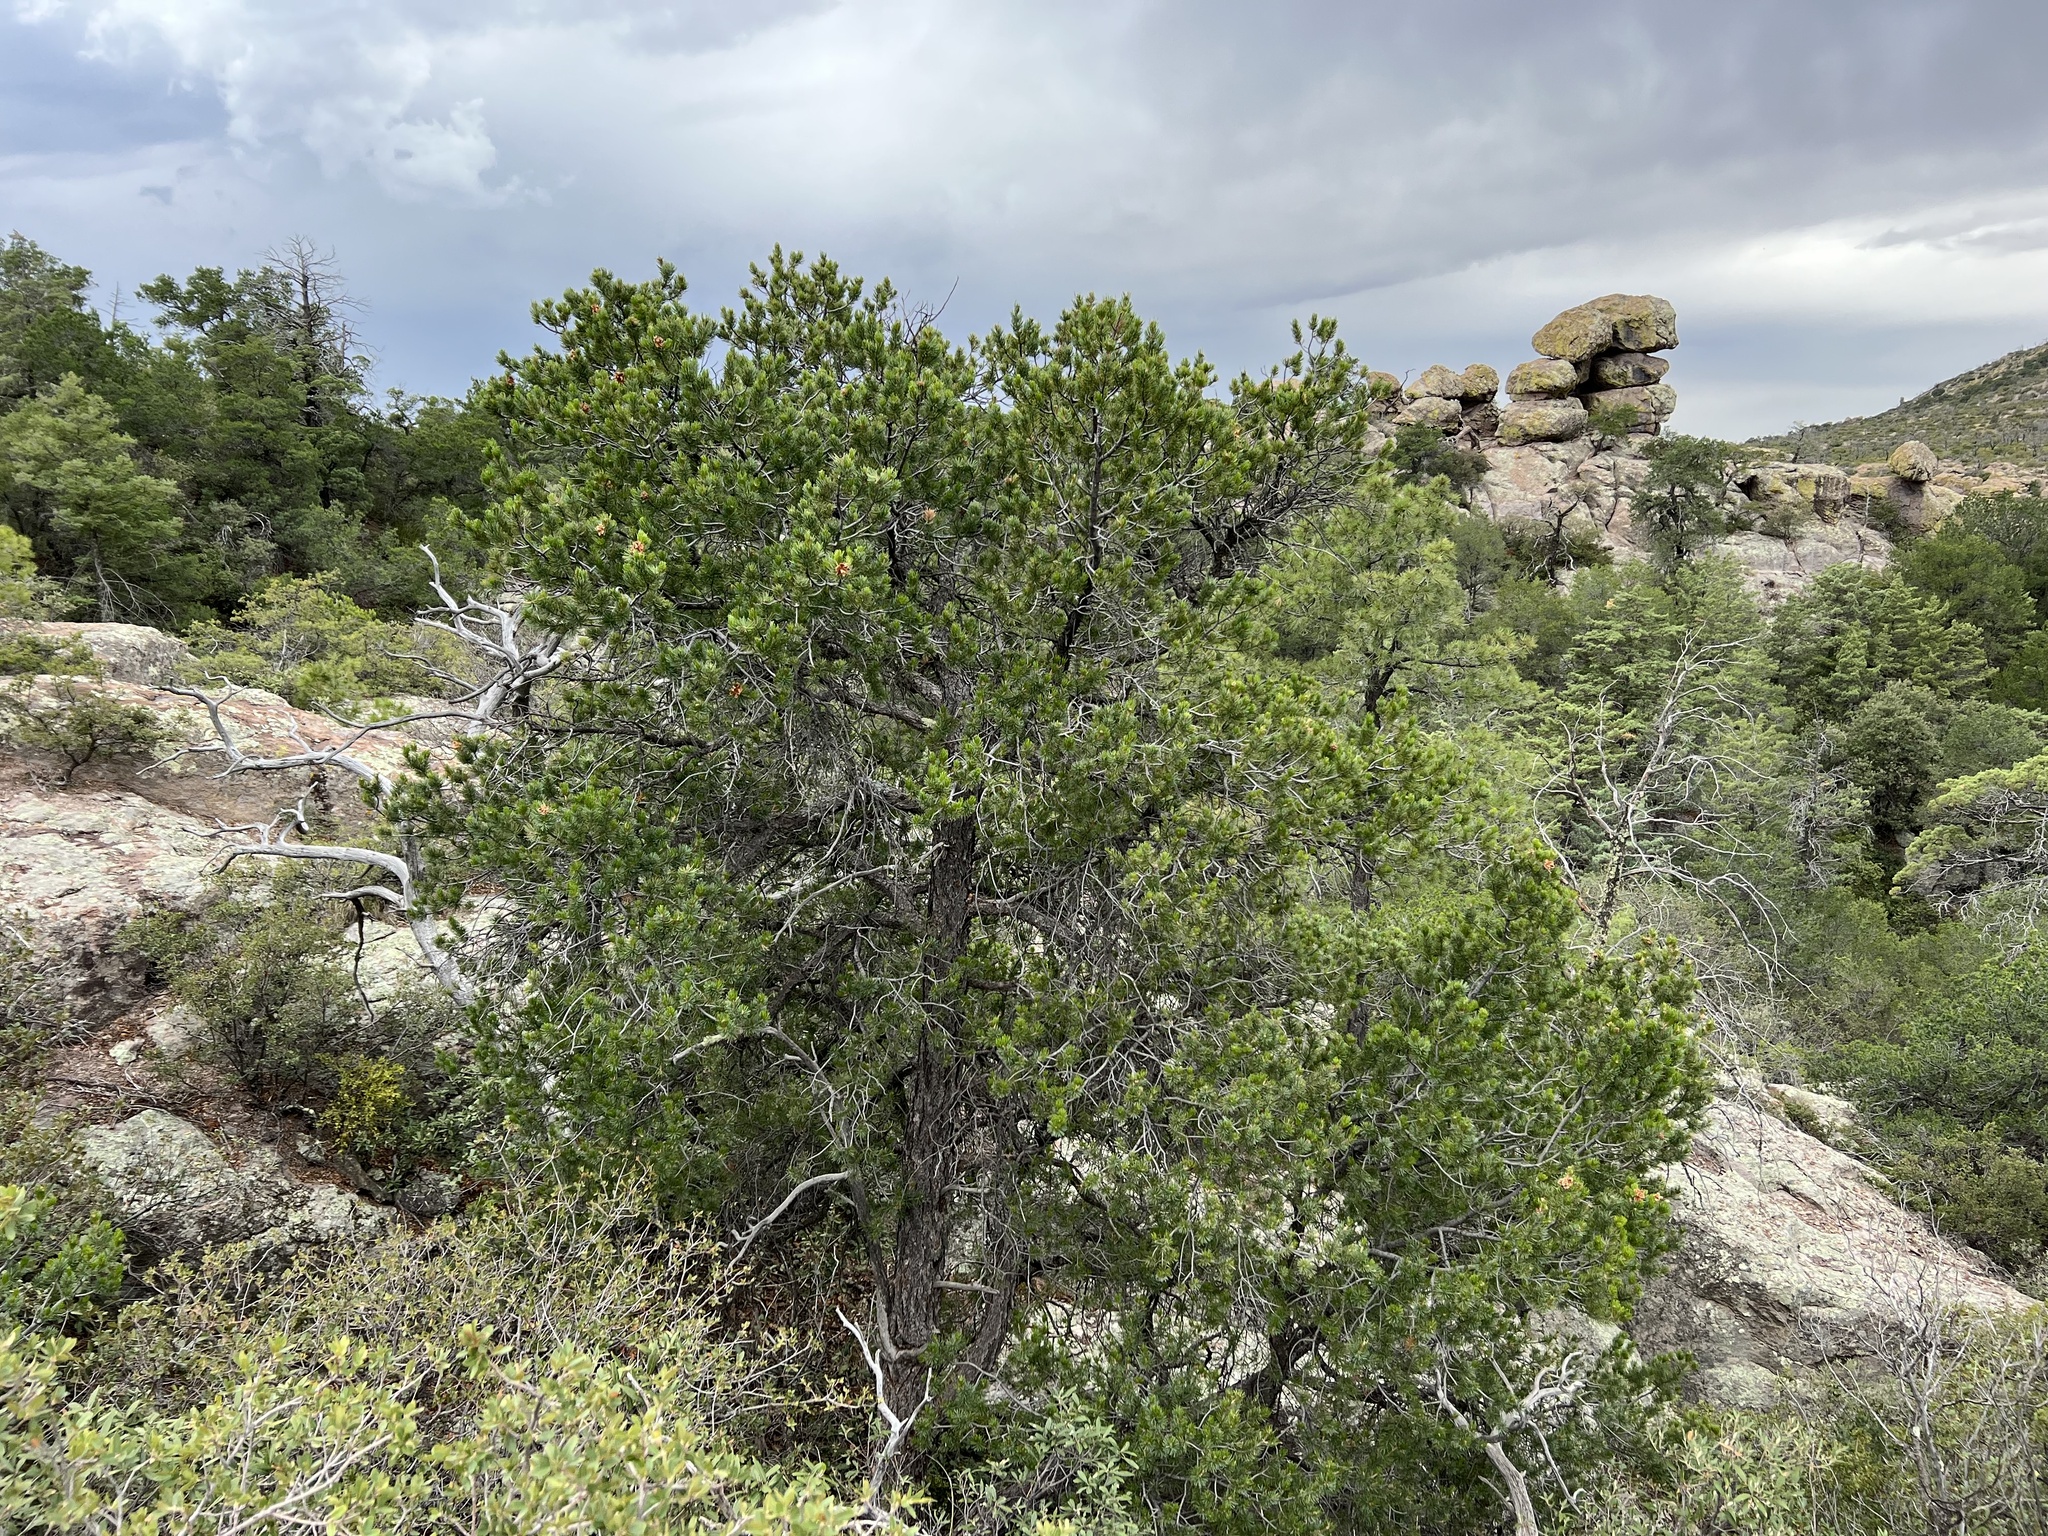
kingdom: Plantae
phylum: Tracheophyta
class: Pinopsida
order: Pinales
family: Pinaceae
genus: Pinus
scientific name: Pinus cembroides
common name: Mexican nut pine
